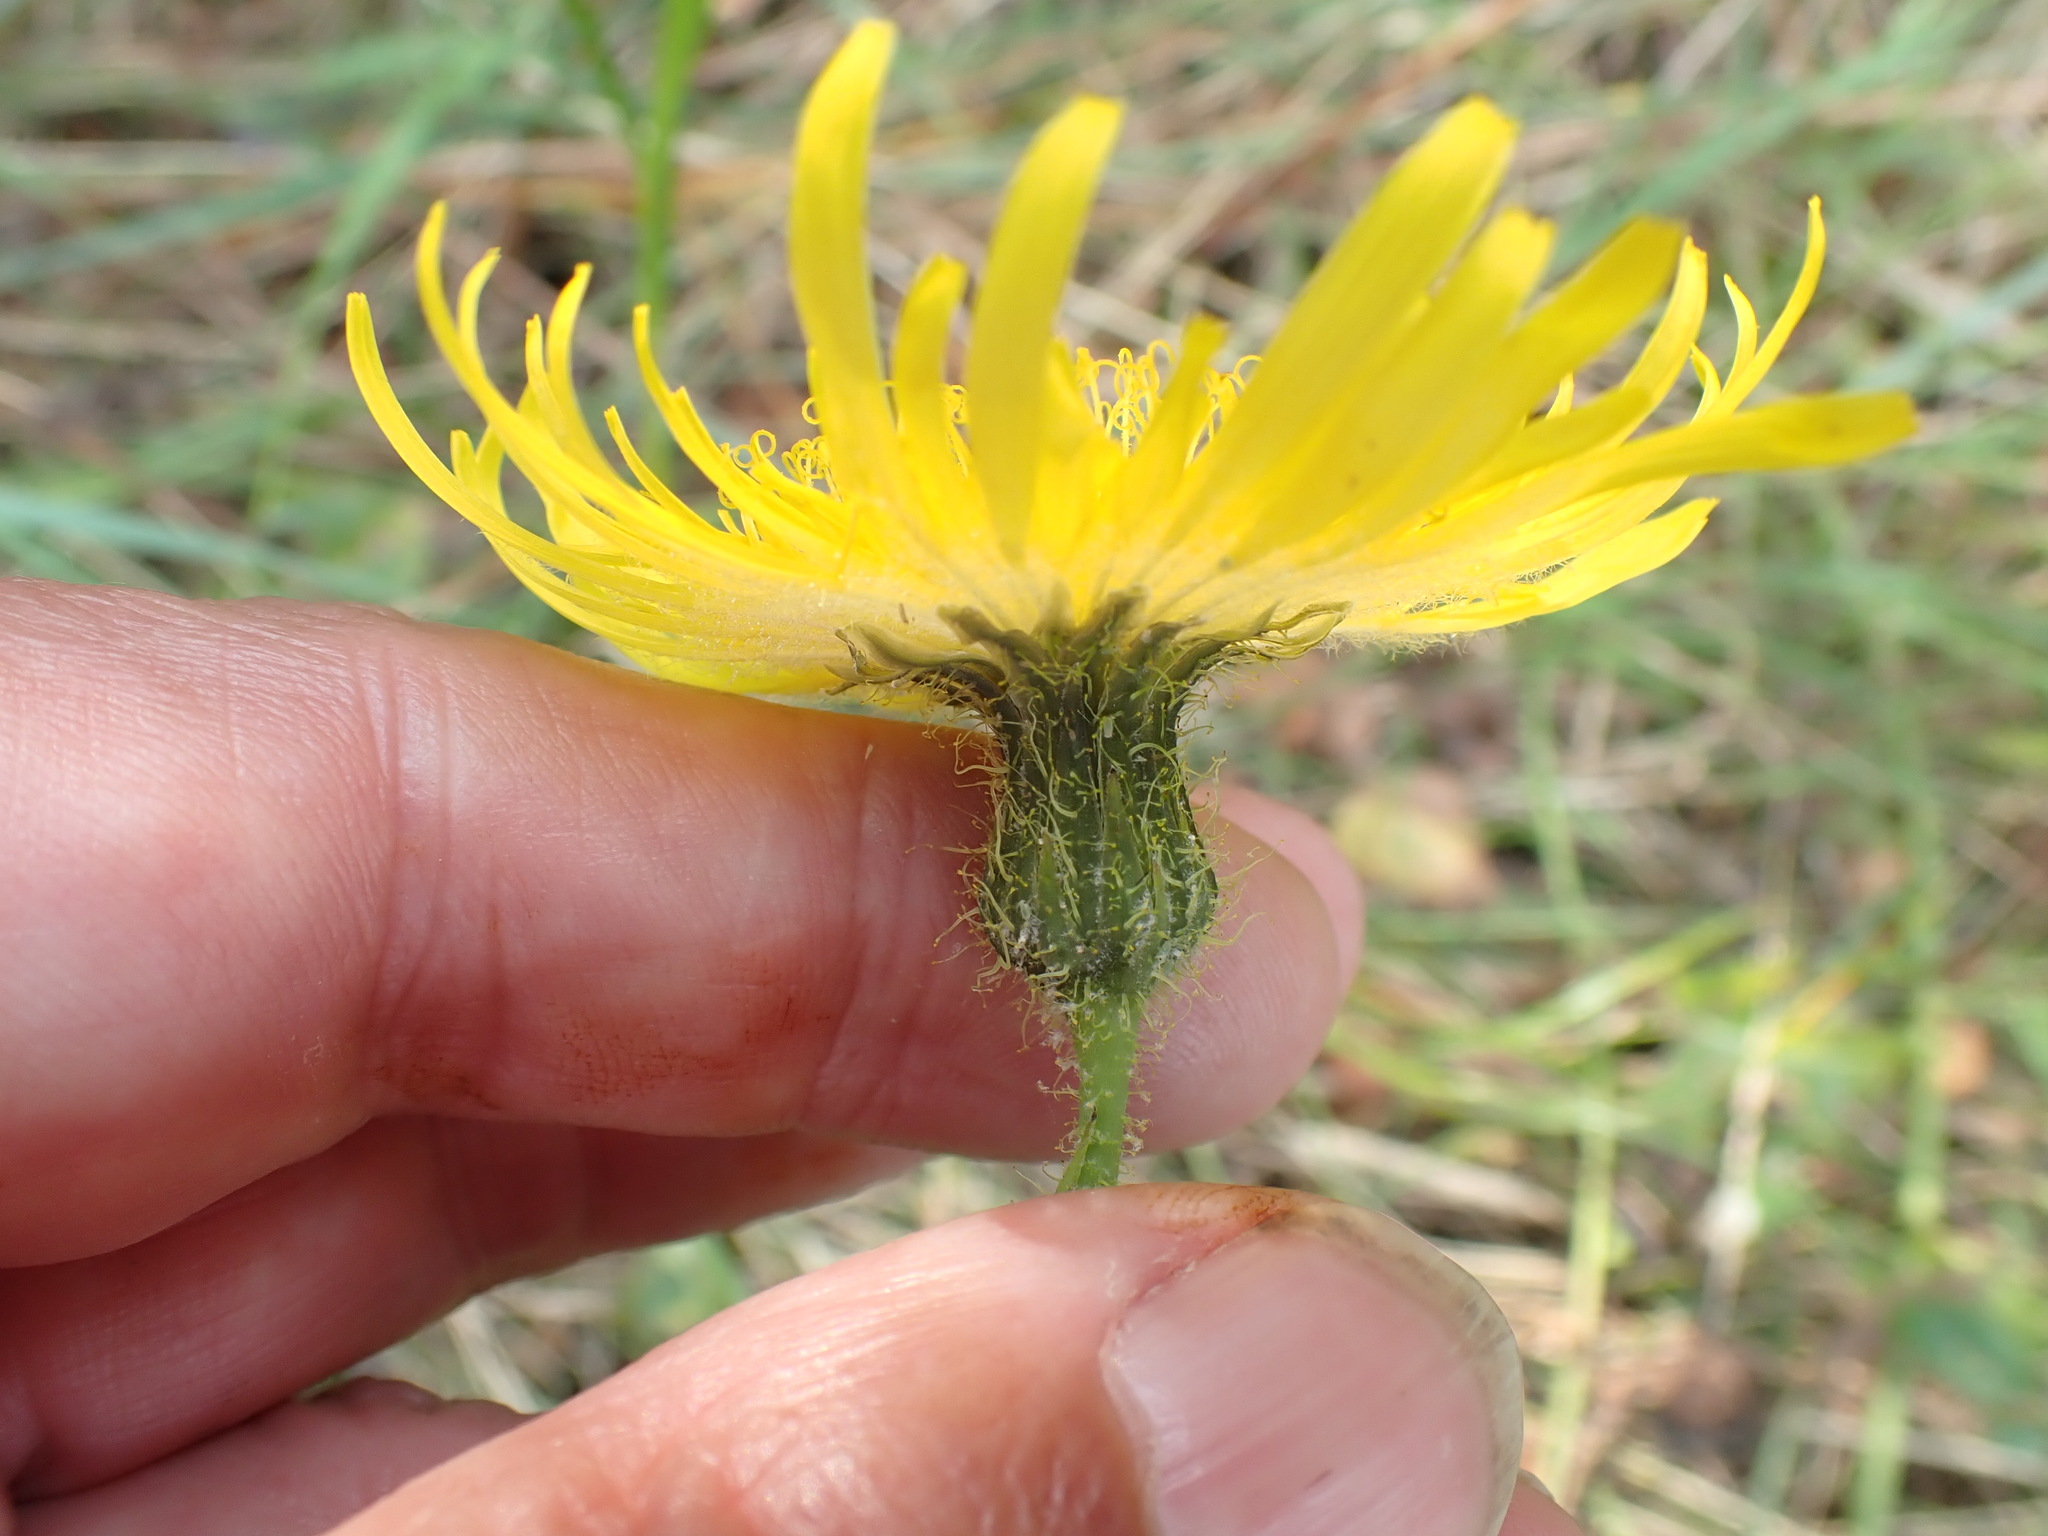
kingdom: Plantae
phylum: Tracheophyta
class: Magnoliopsida
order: Asterales
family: Asteraceae
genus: Sonchus
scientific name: Sonchus arvensis
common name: Perennial sow-thistle
